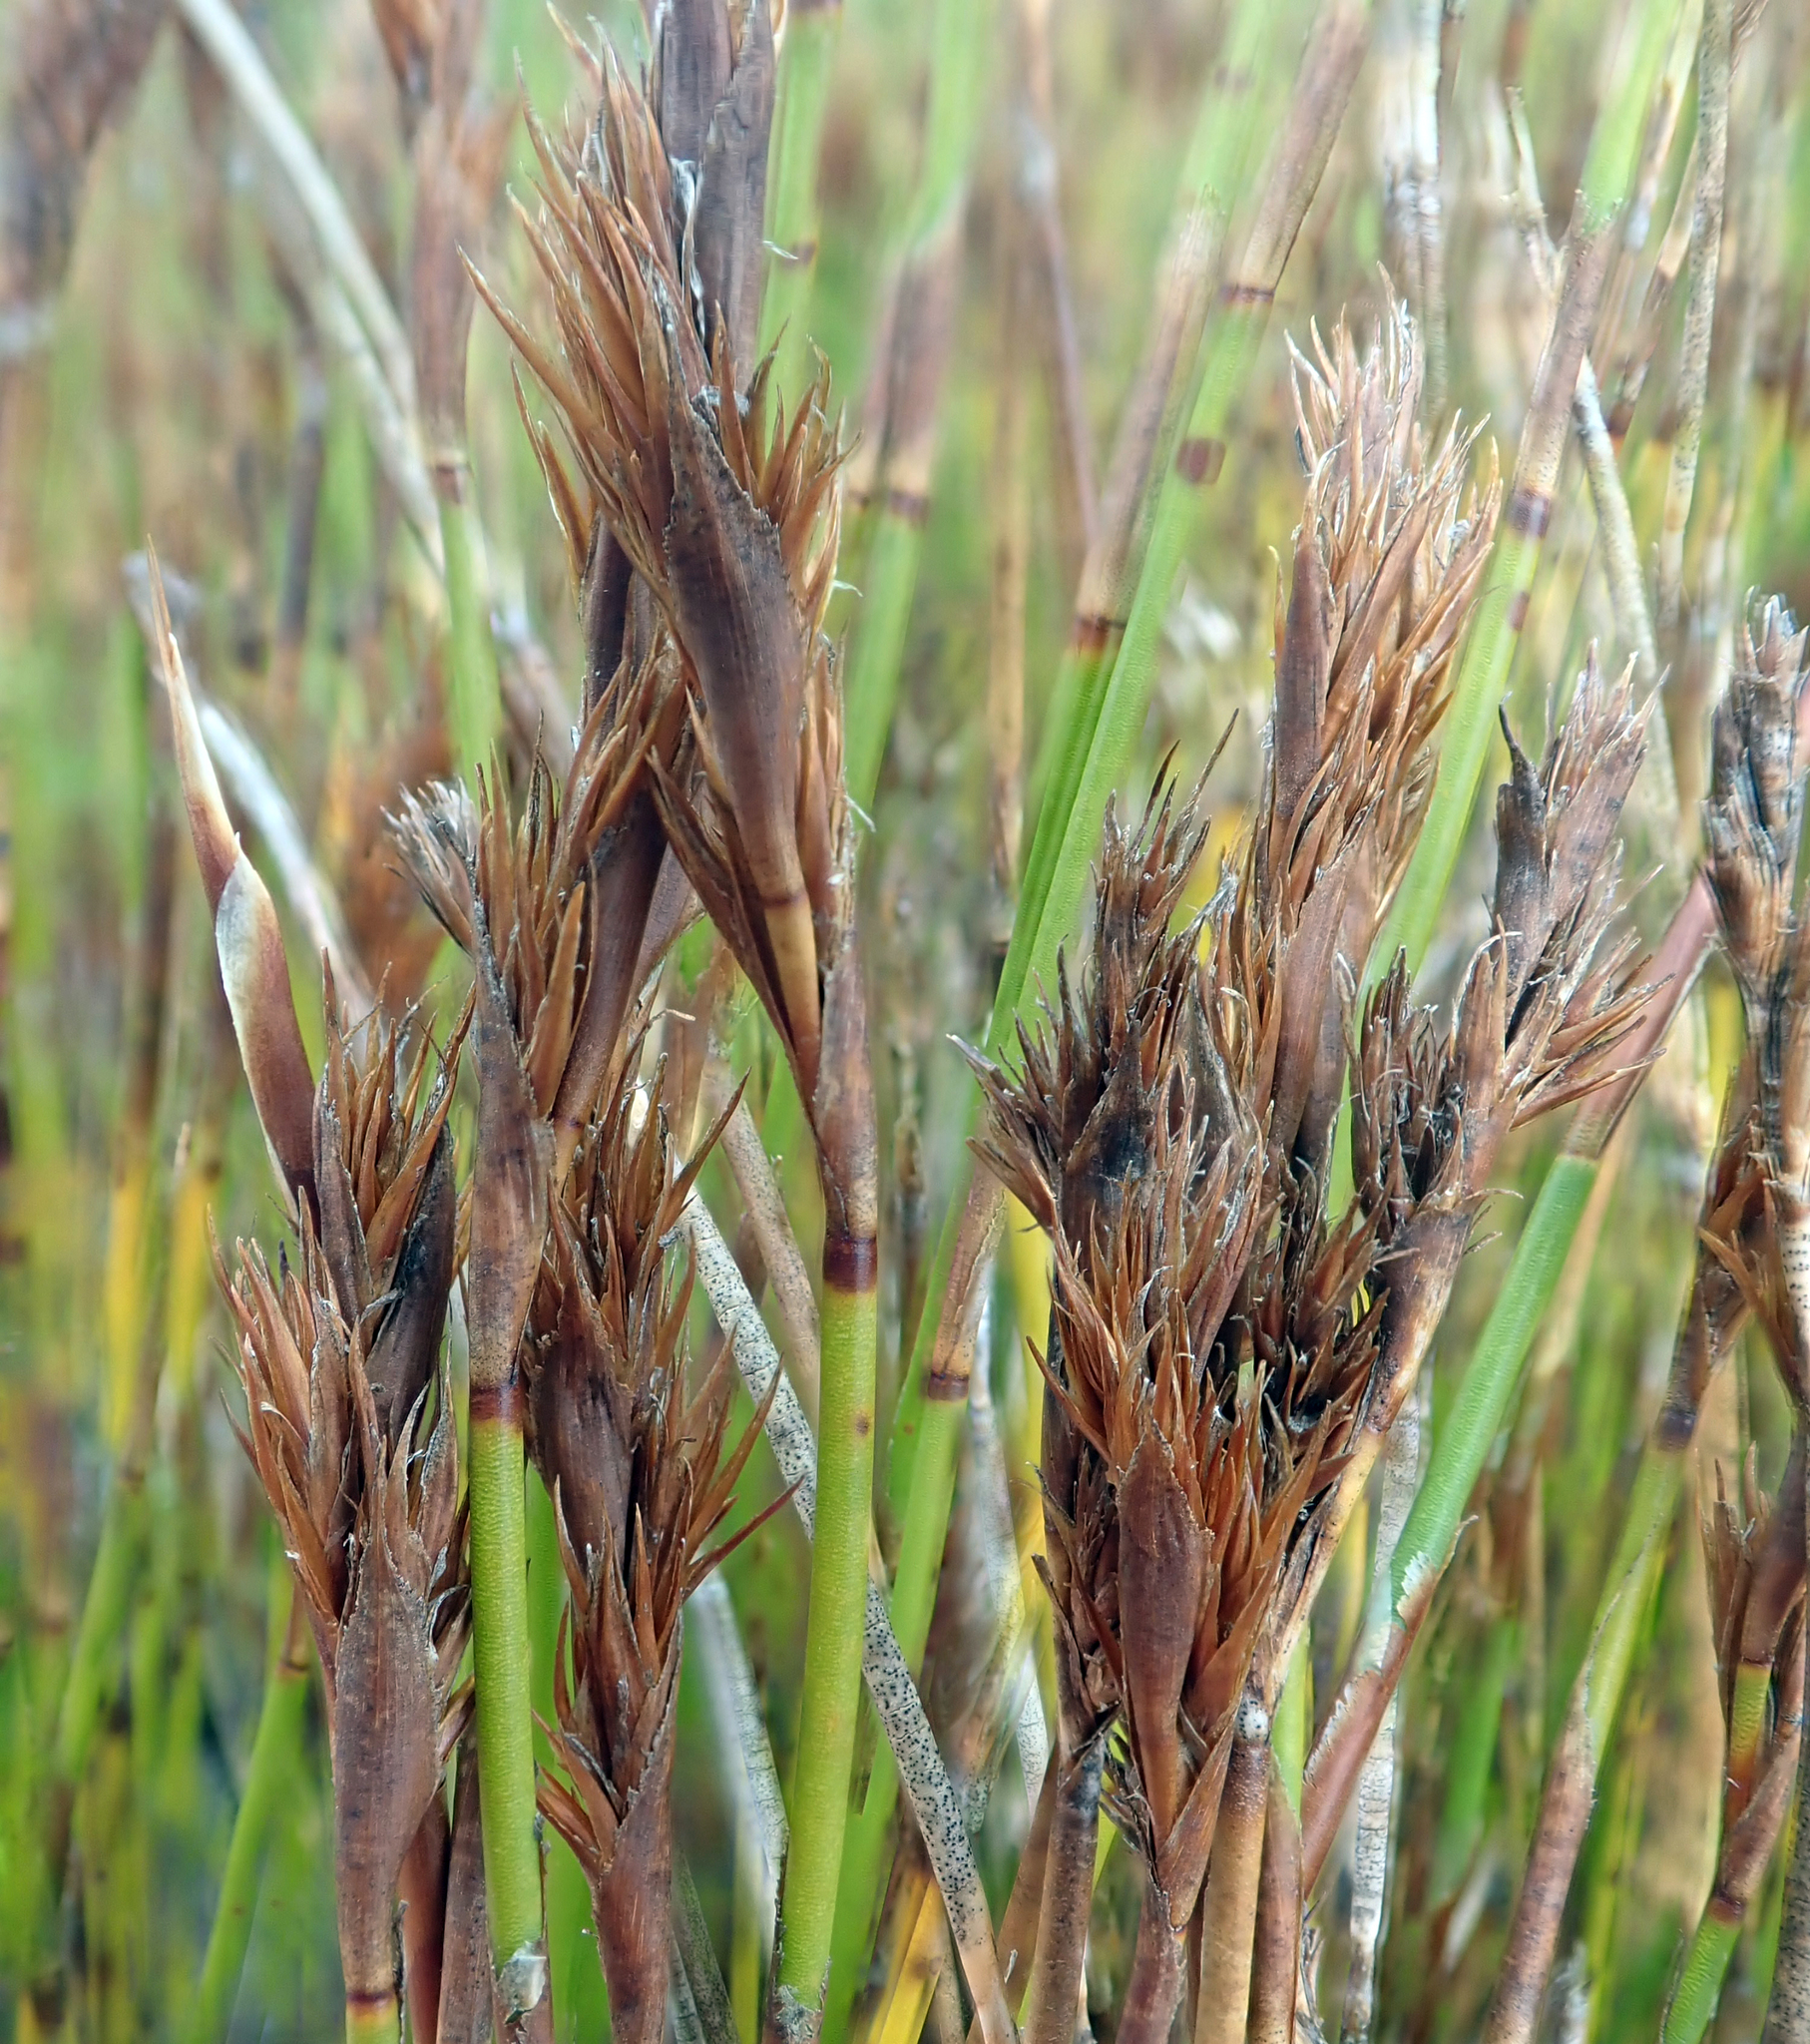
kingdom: Plantae
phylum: Tracheophyta
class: Liliopsida
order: Poales
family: Restionaceae
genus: Sporadanthus
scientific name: Sporadanthus traversii
